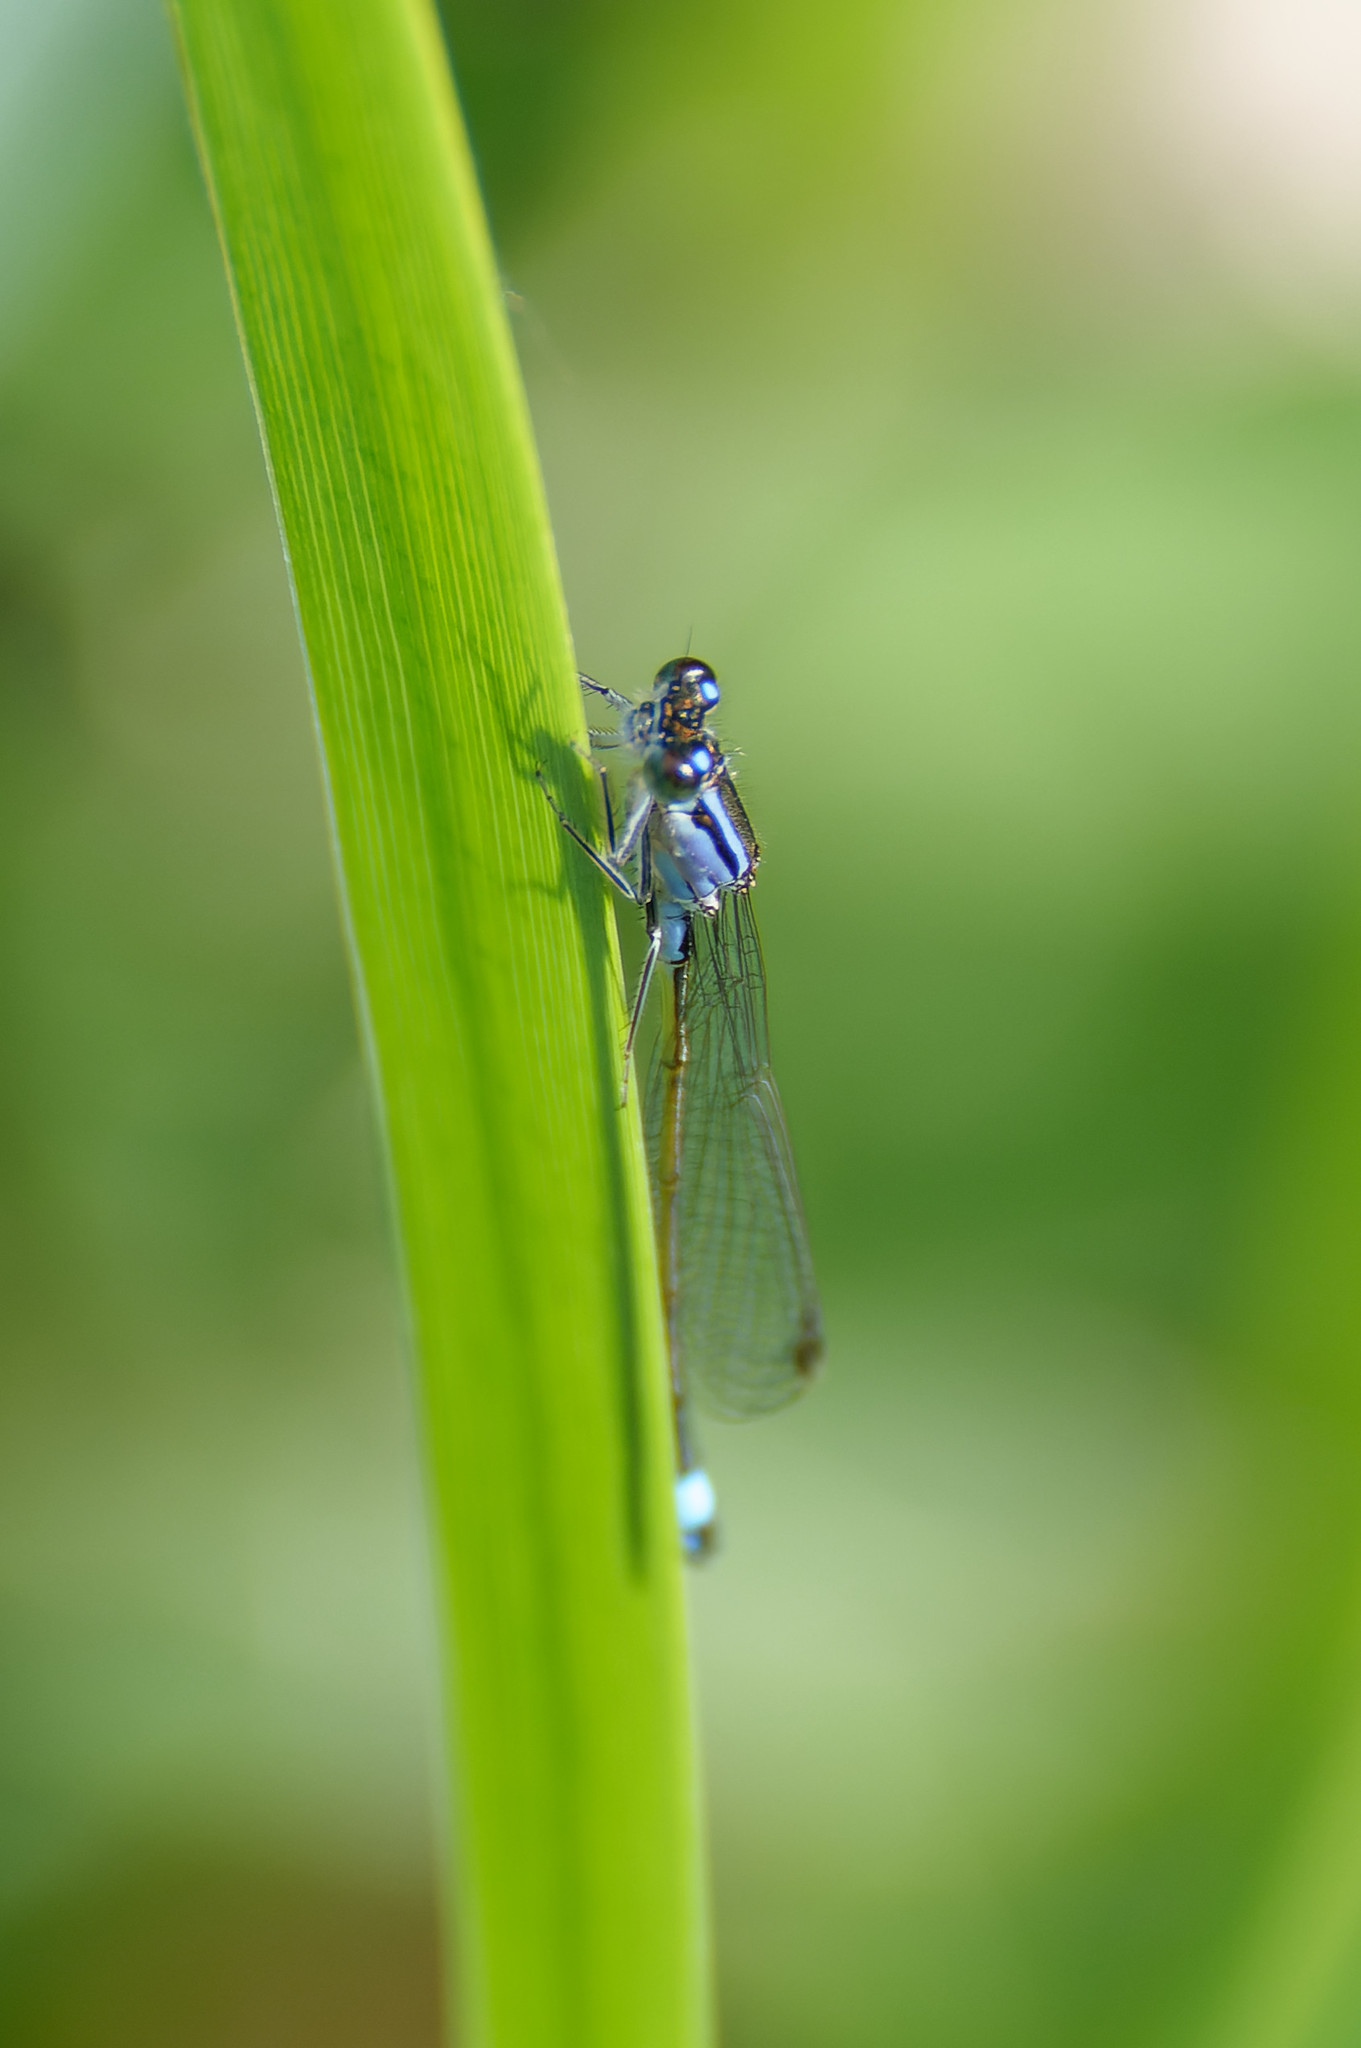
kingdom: Animalia
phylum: Arthropoda
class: Insecta
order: Odonata
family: Coenagrionidae
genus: Ischnura
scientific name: Ischnura elegans
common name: Blue-tailed damselfly
